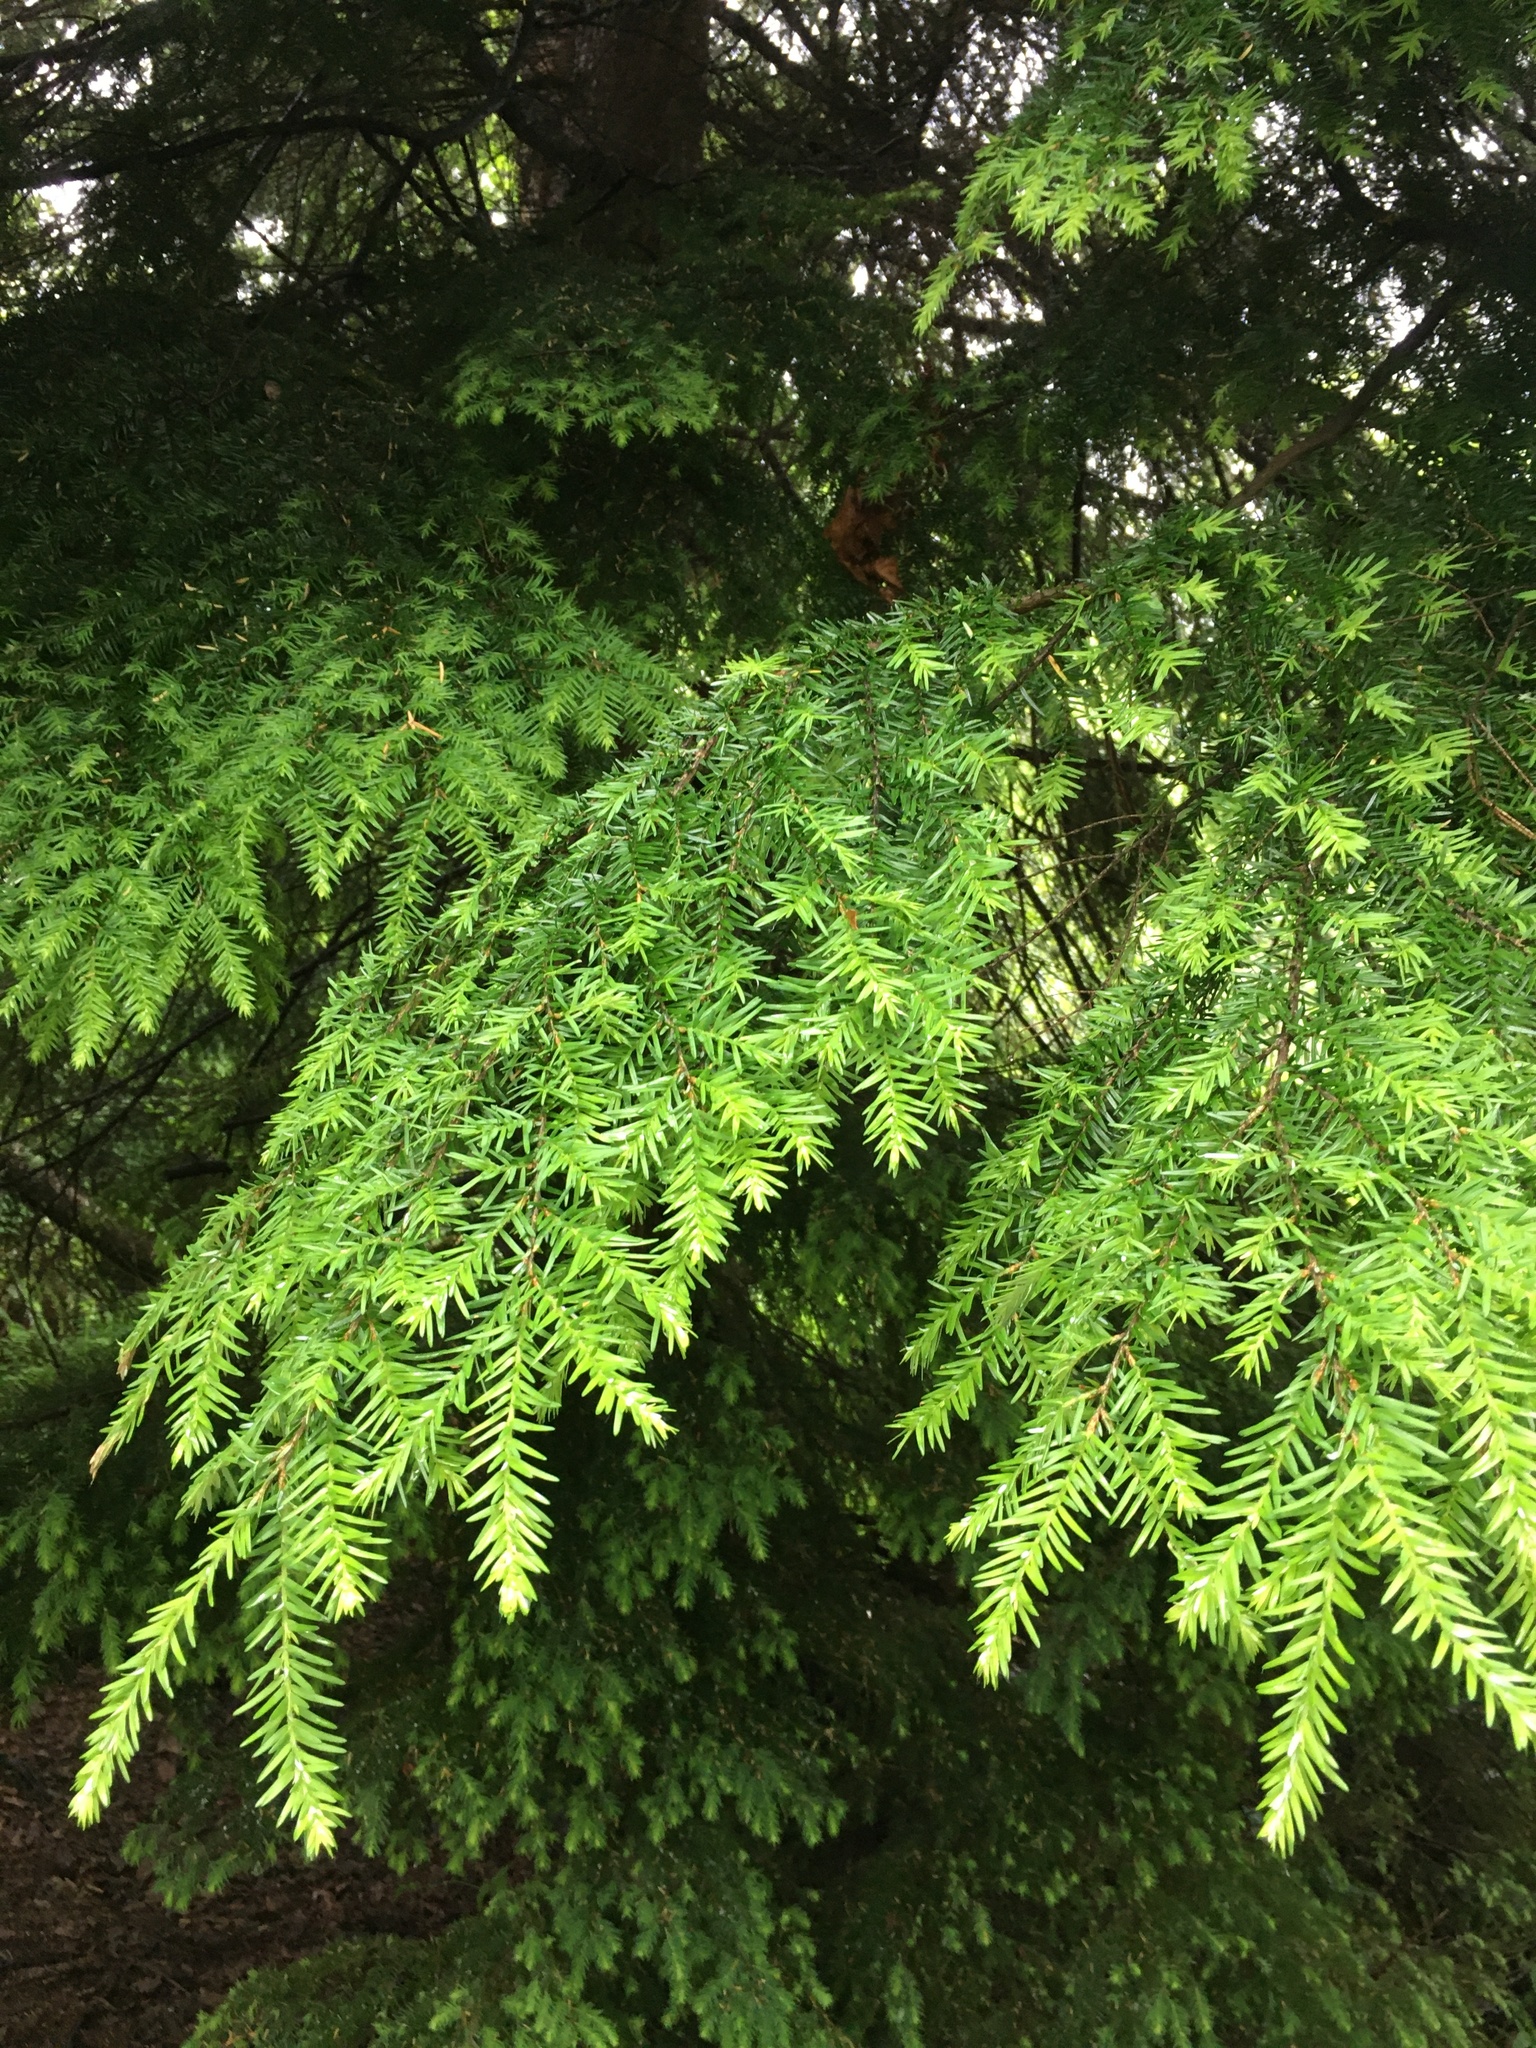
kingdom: Plantae
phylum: Tracheophyta
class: Pinopsida
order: Pinales
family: Pinaceae
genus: Tsuga
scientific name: Tsuga heterophylla
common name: Western hemlock
